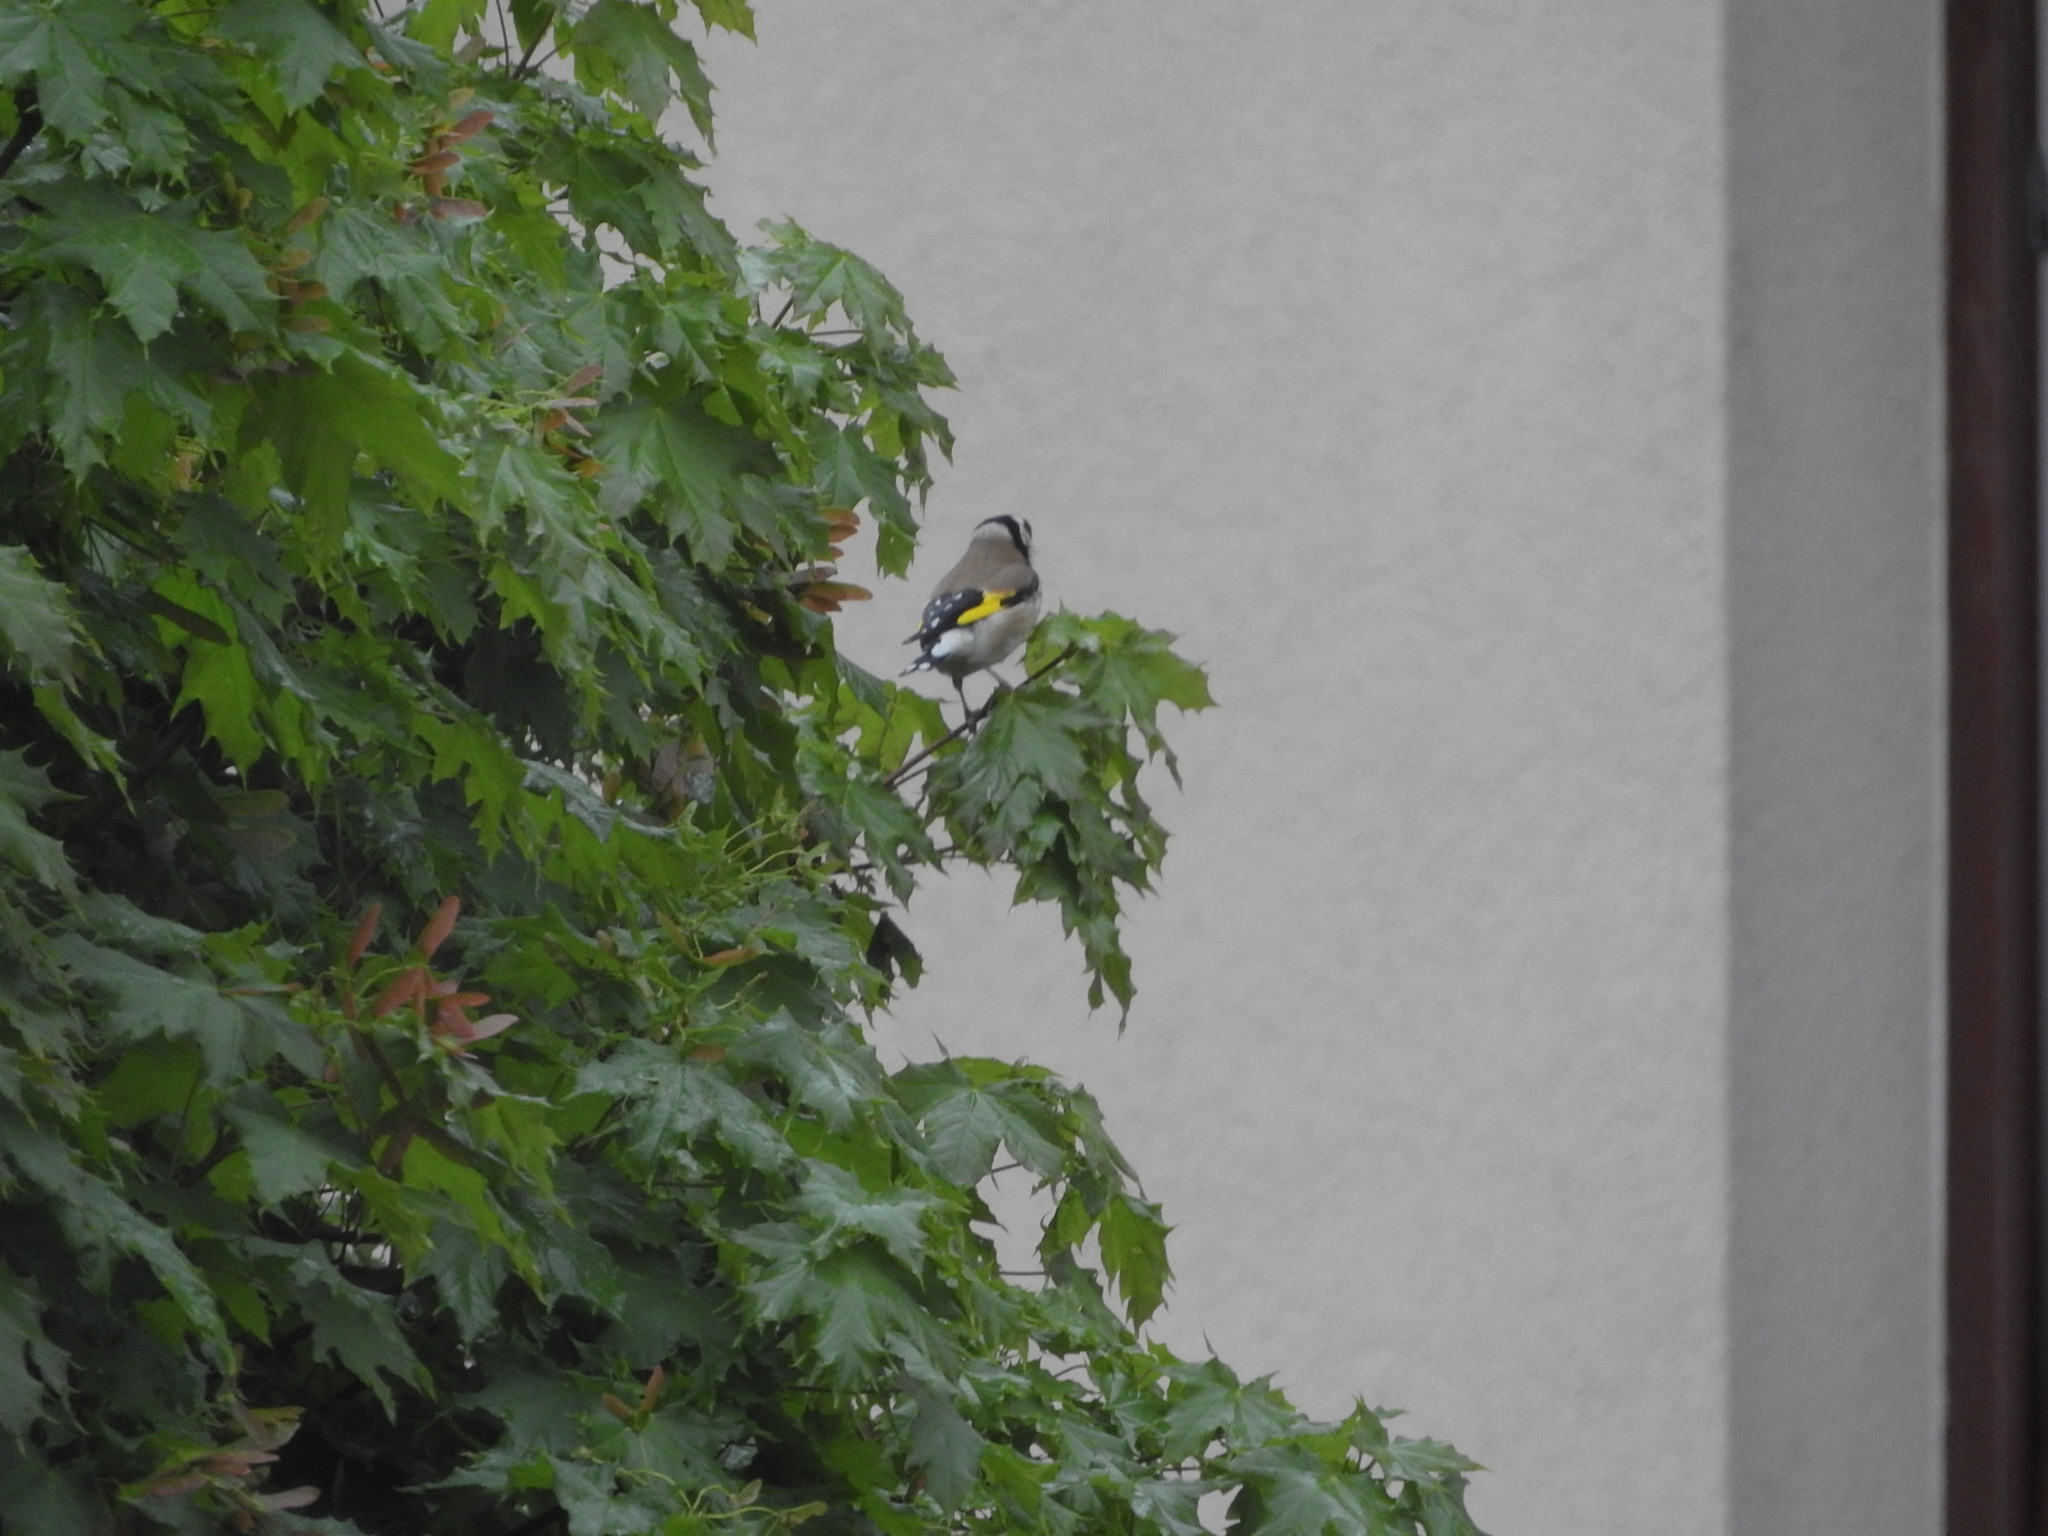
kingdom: Animalia
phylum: Chordata
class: Aves
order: Passeriformes
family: Fringillidae
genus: Carduelis
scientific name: Carduelis carduelis
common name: European goldfinch
